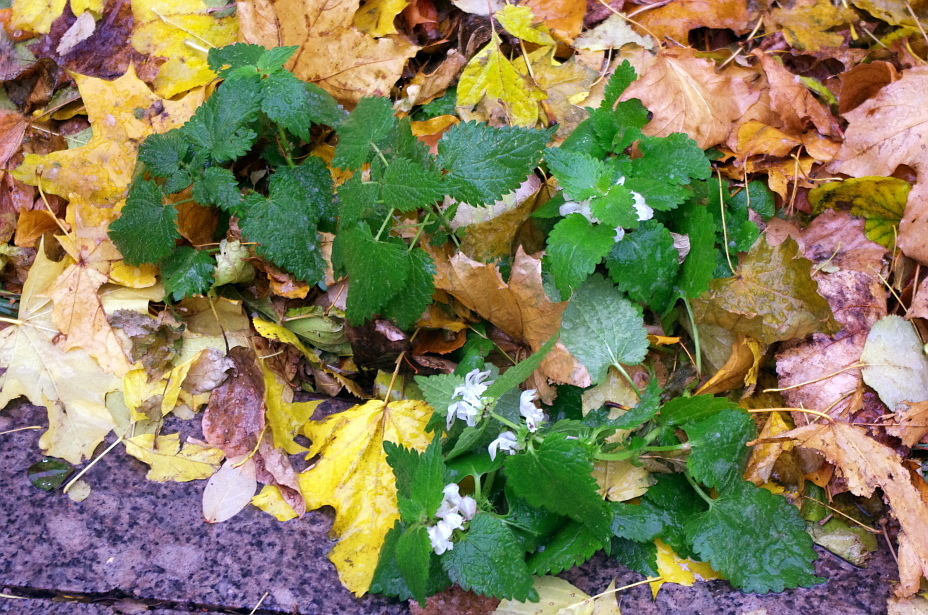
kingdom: Plantae
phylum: Tracheophyta
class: Magnoliopsida
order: Lamiales
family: Lamiaceae
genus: Lamium
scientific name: Lamium album
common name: White dead-nettle
